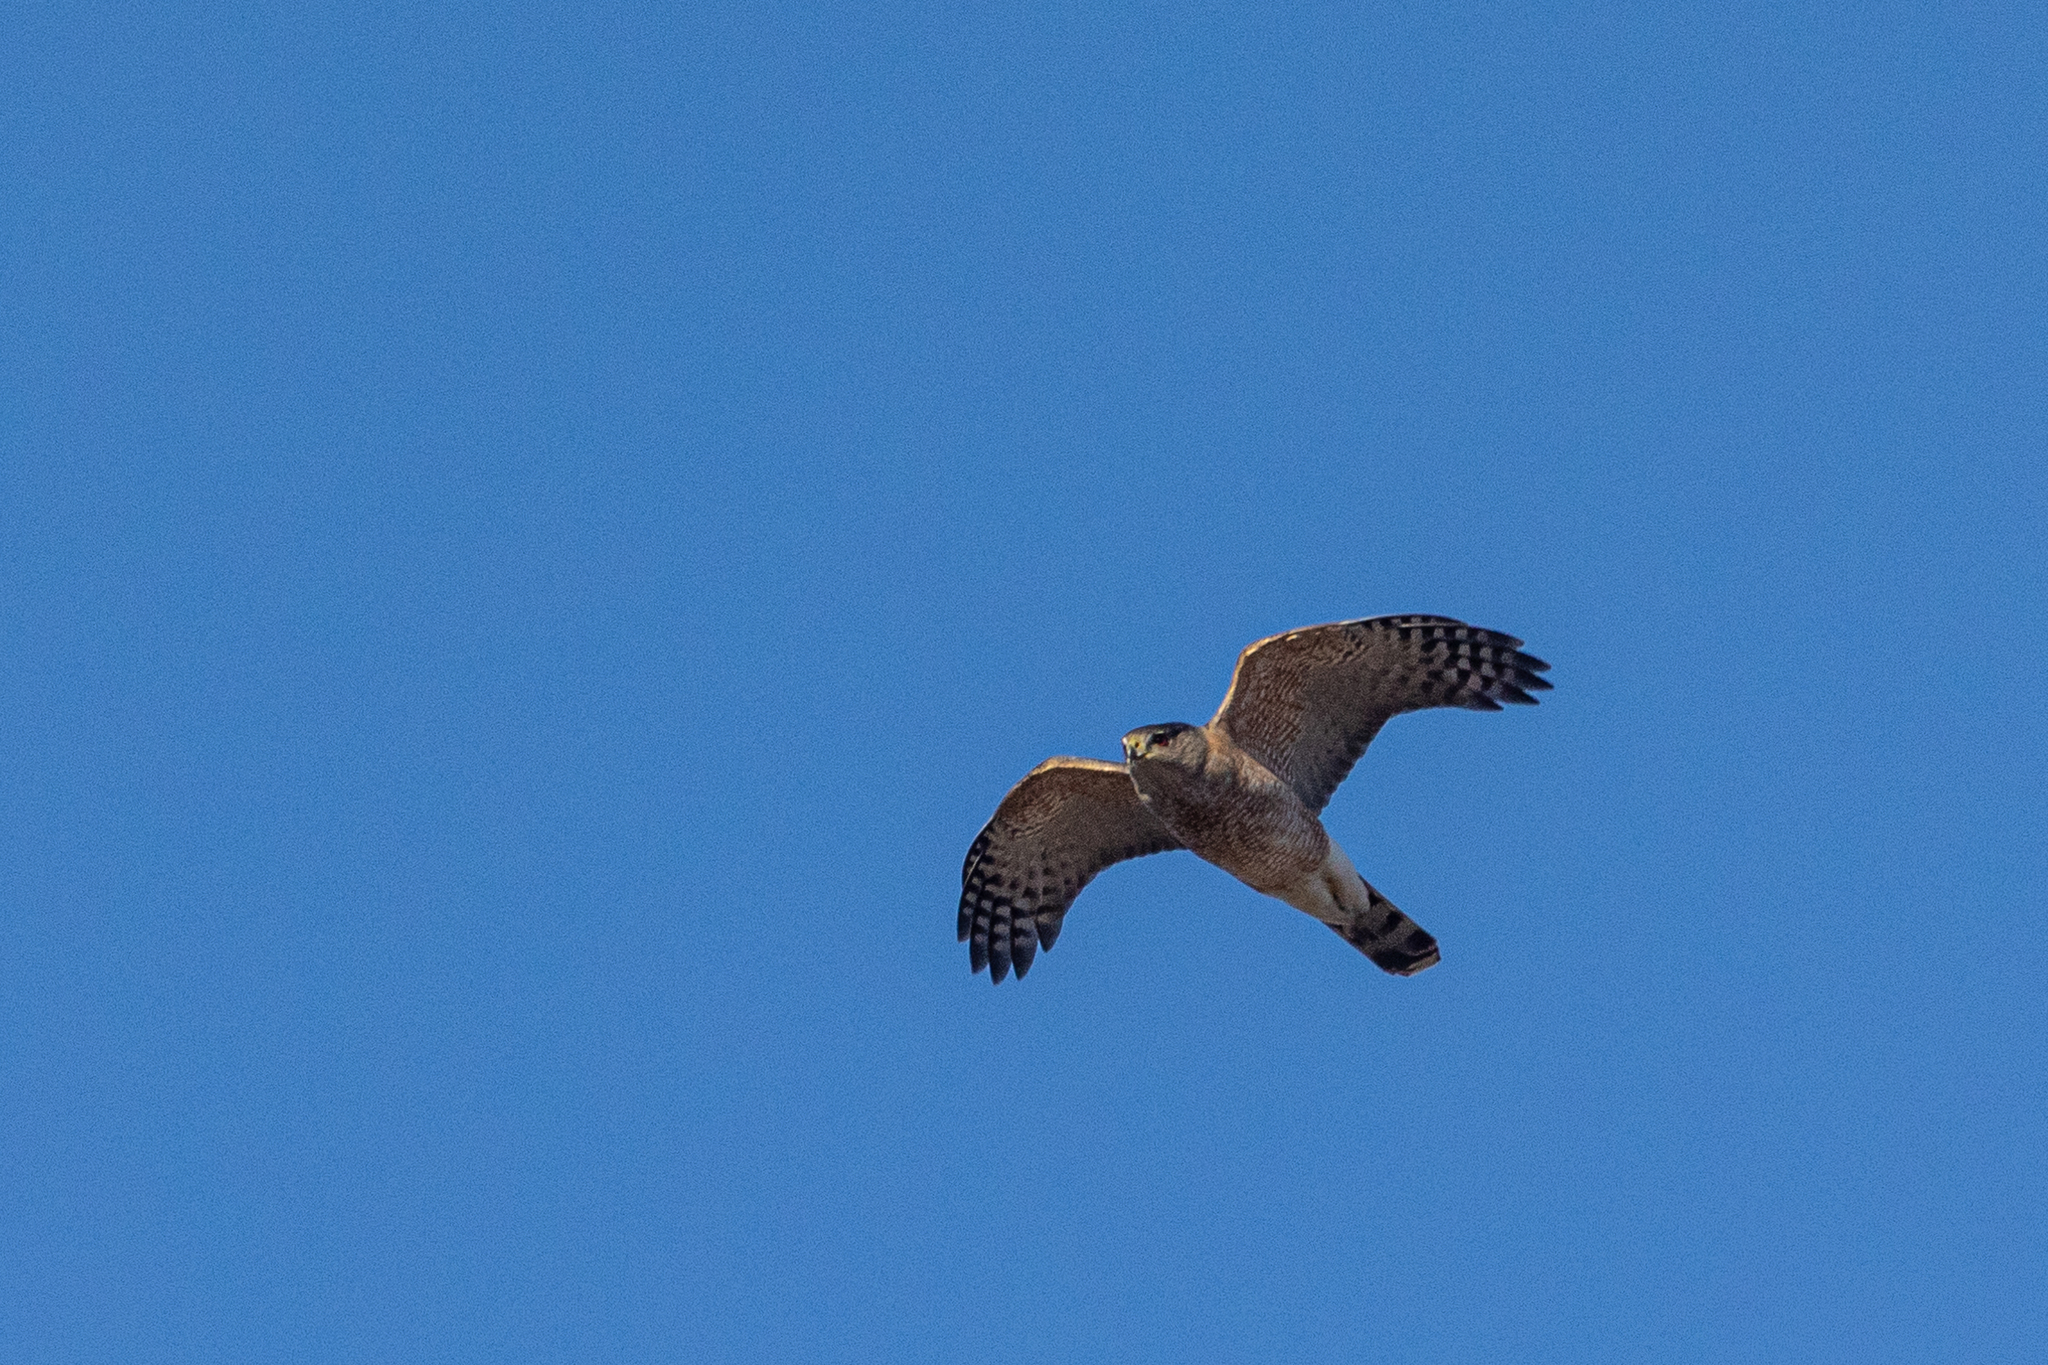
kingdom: Animalia
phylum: Chordata
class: Aves
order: Accipitriformes
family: Accipitridae
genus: Accipiter
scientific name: Accipiter cooperii
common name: Cooper's hawk
